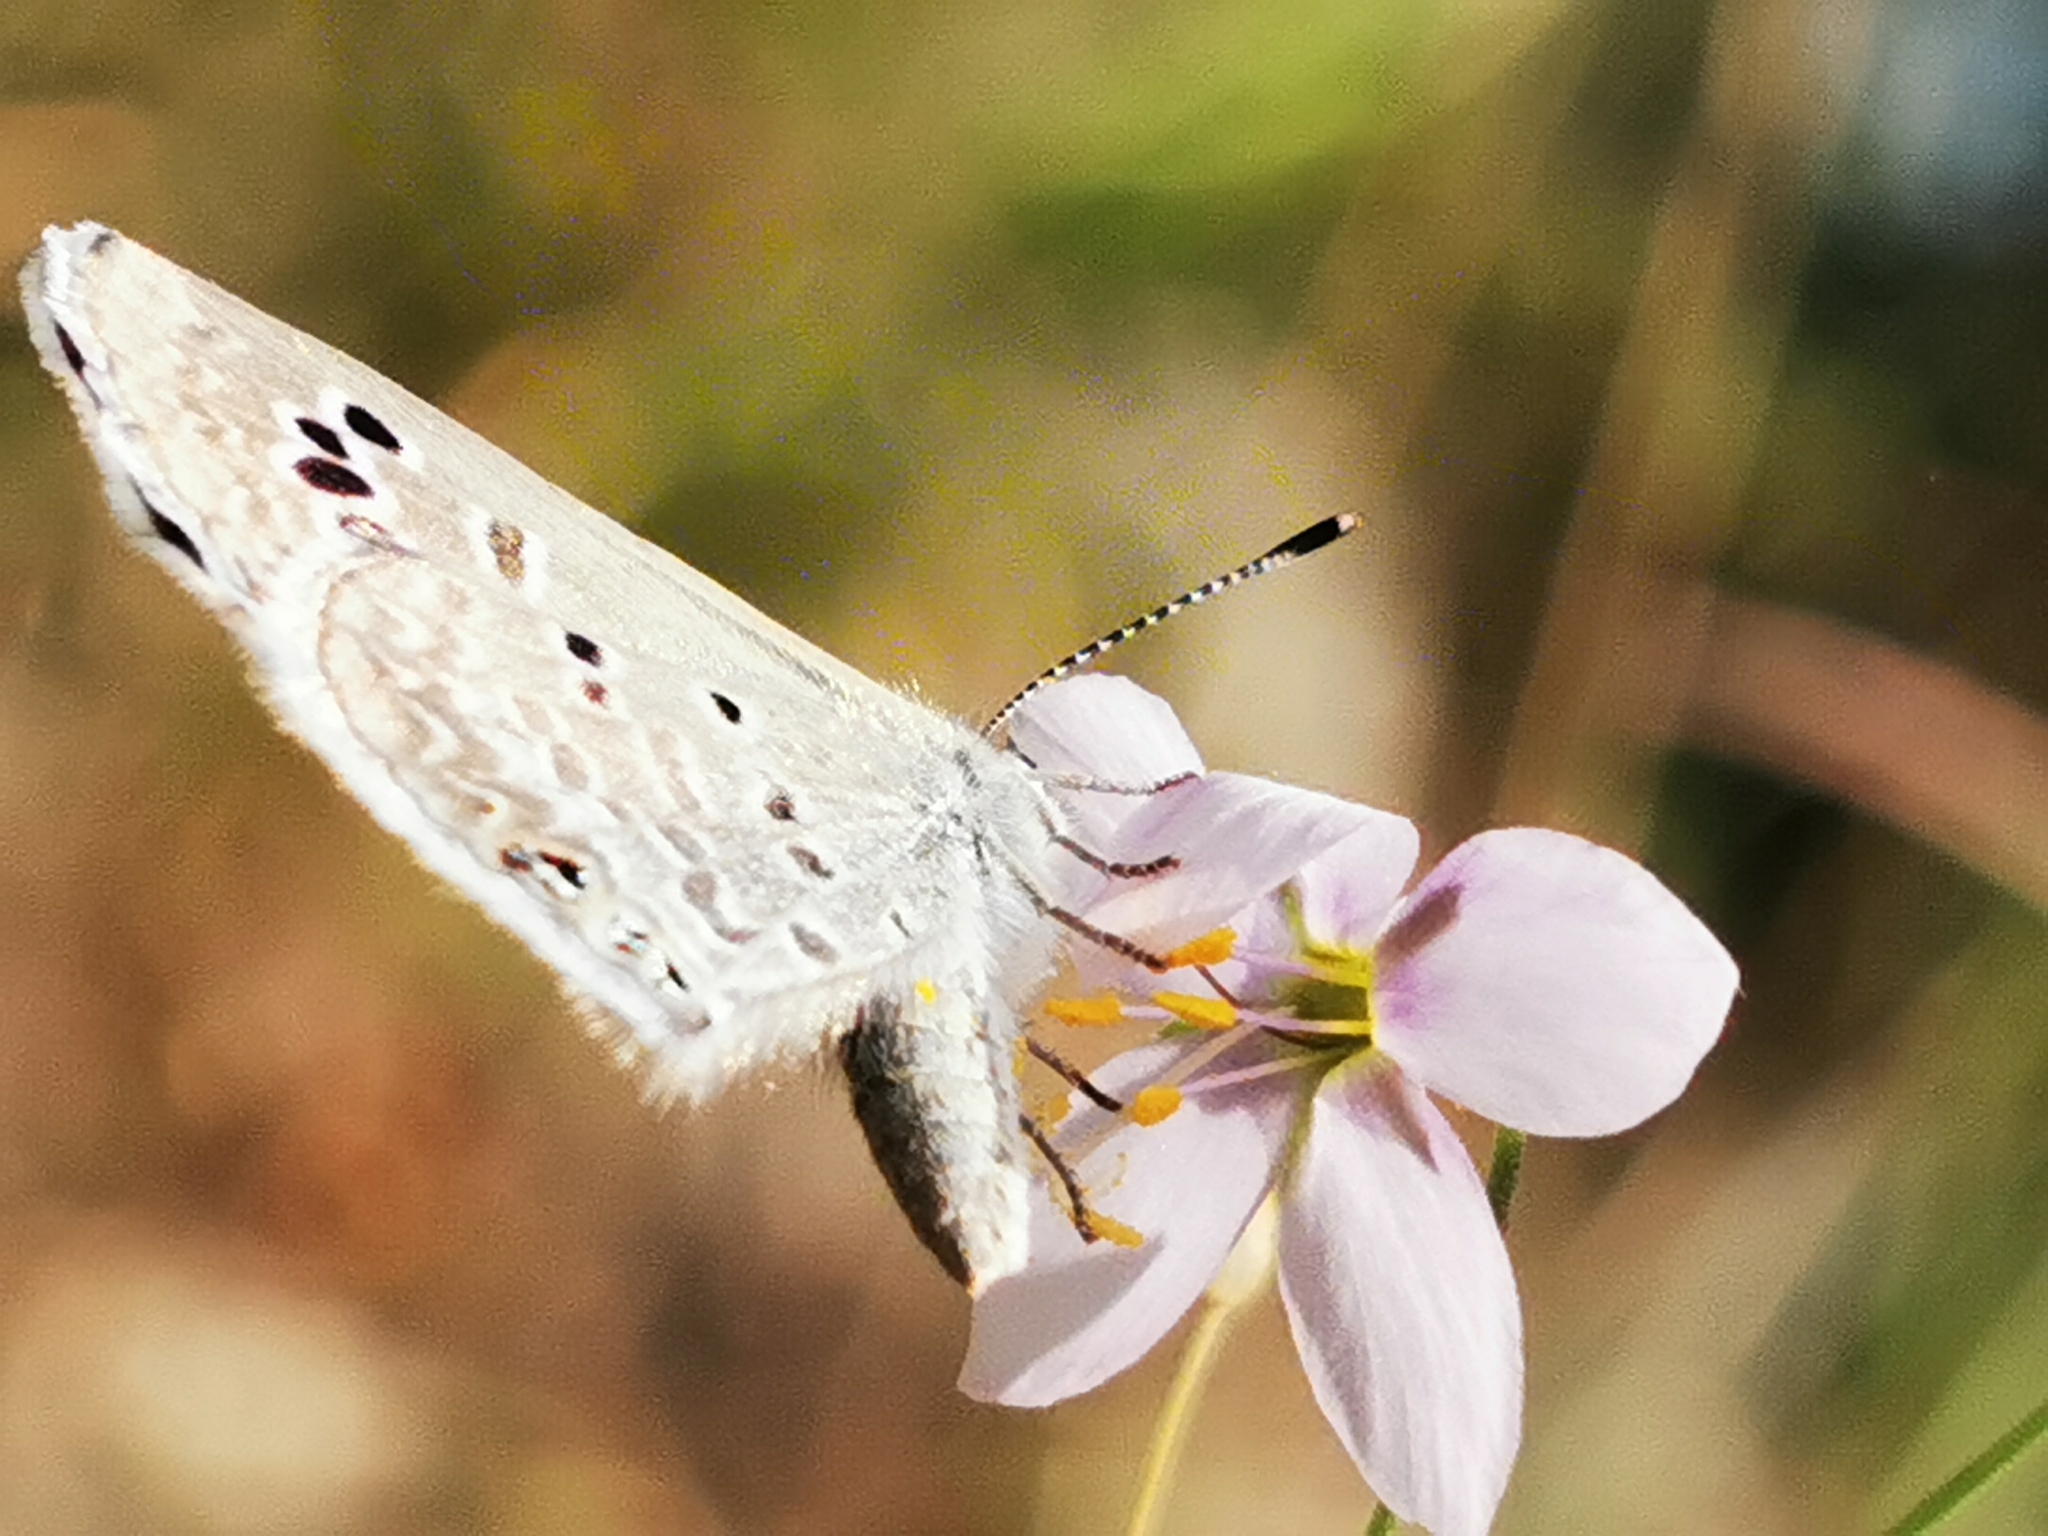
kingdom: Animalia
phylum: Arthropoda
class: Insecta
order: Lepidoptera
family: Lycaenidae
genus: Echinargus
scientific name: Echinargus isola
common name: Reakirt's blue
